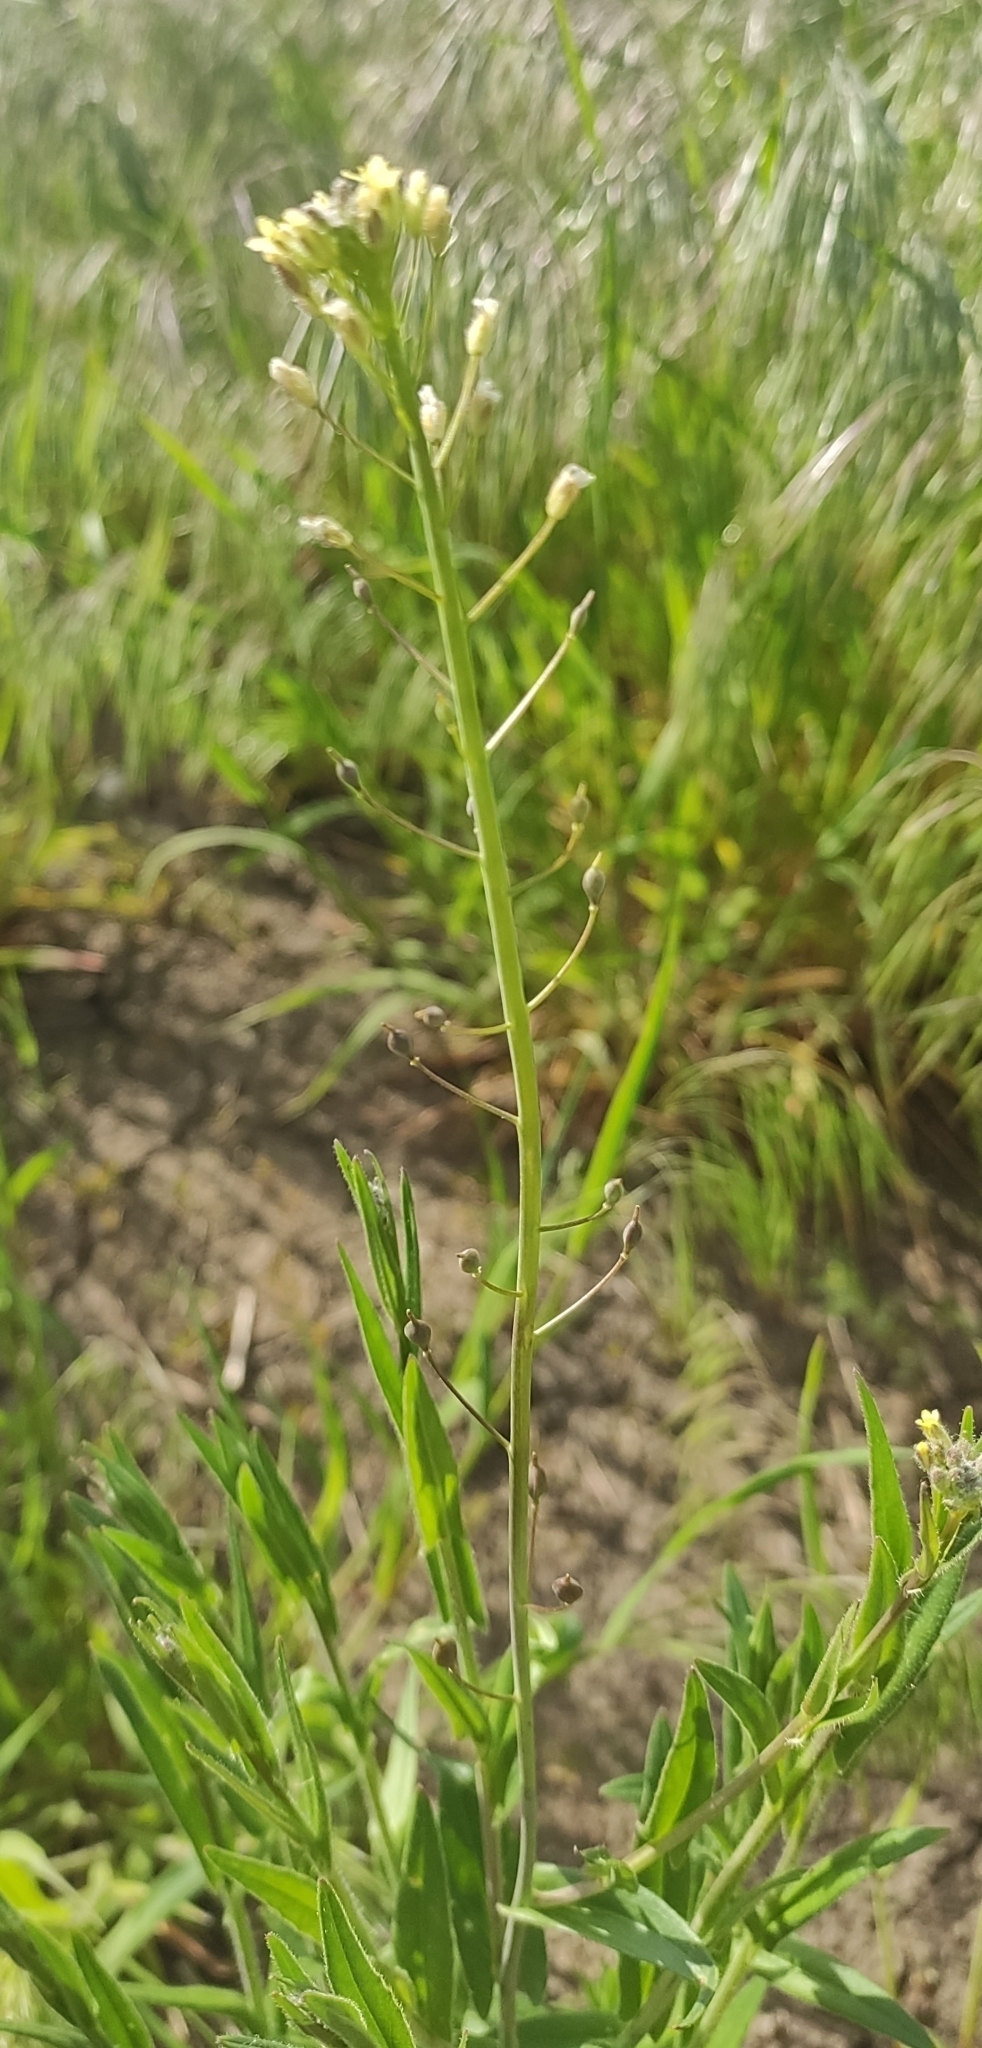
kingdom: Plantae
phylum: Tracheophyta
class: Magnoliopsida
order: Brassicales
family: Brassicaceae
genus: Camelina
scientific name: Camelina microcarpa
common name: Lesser gold-of-pleasure
